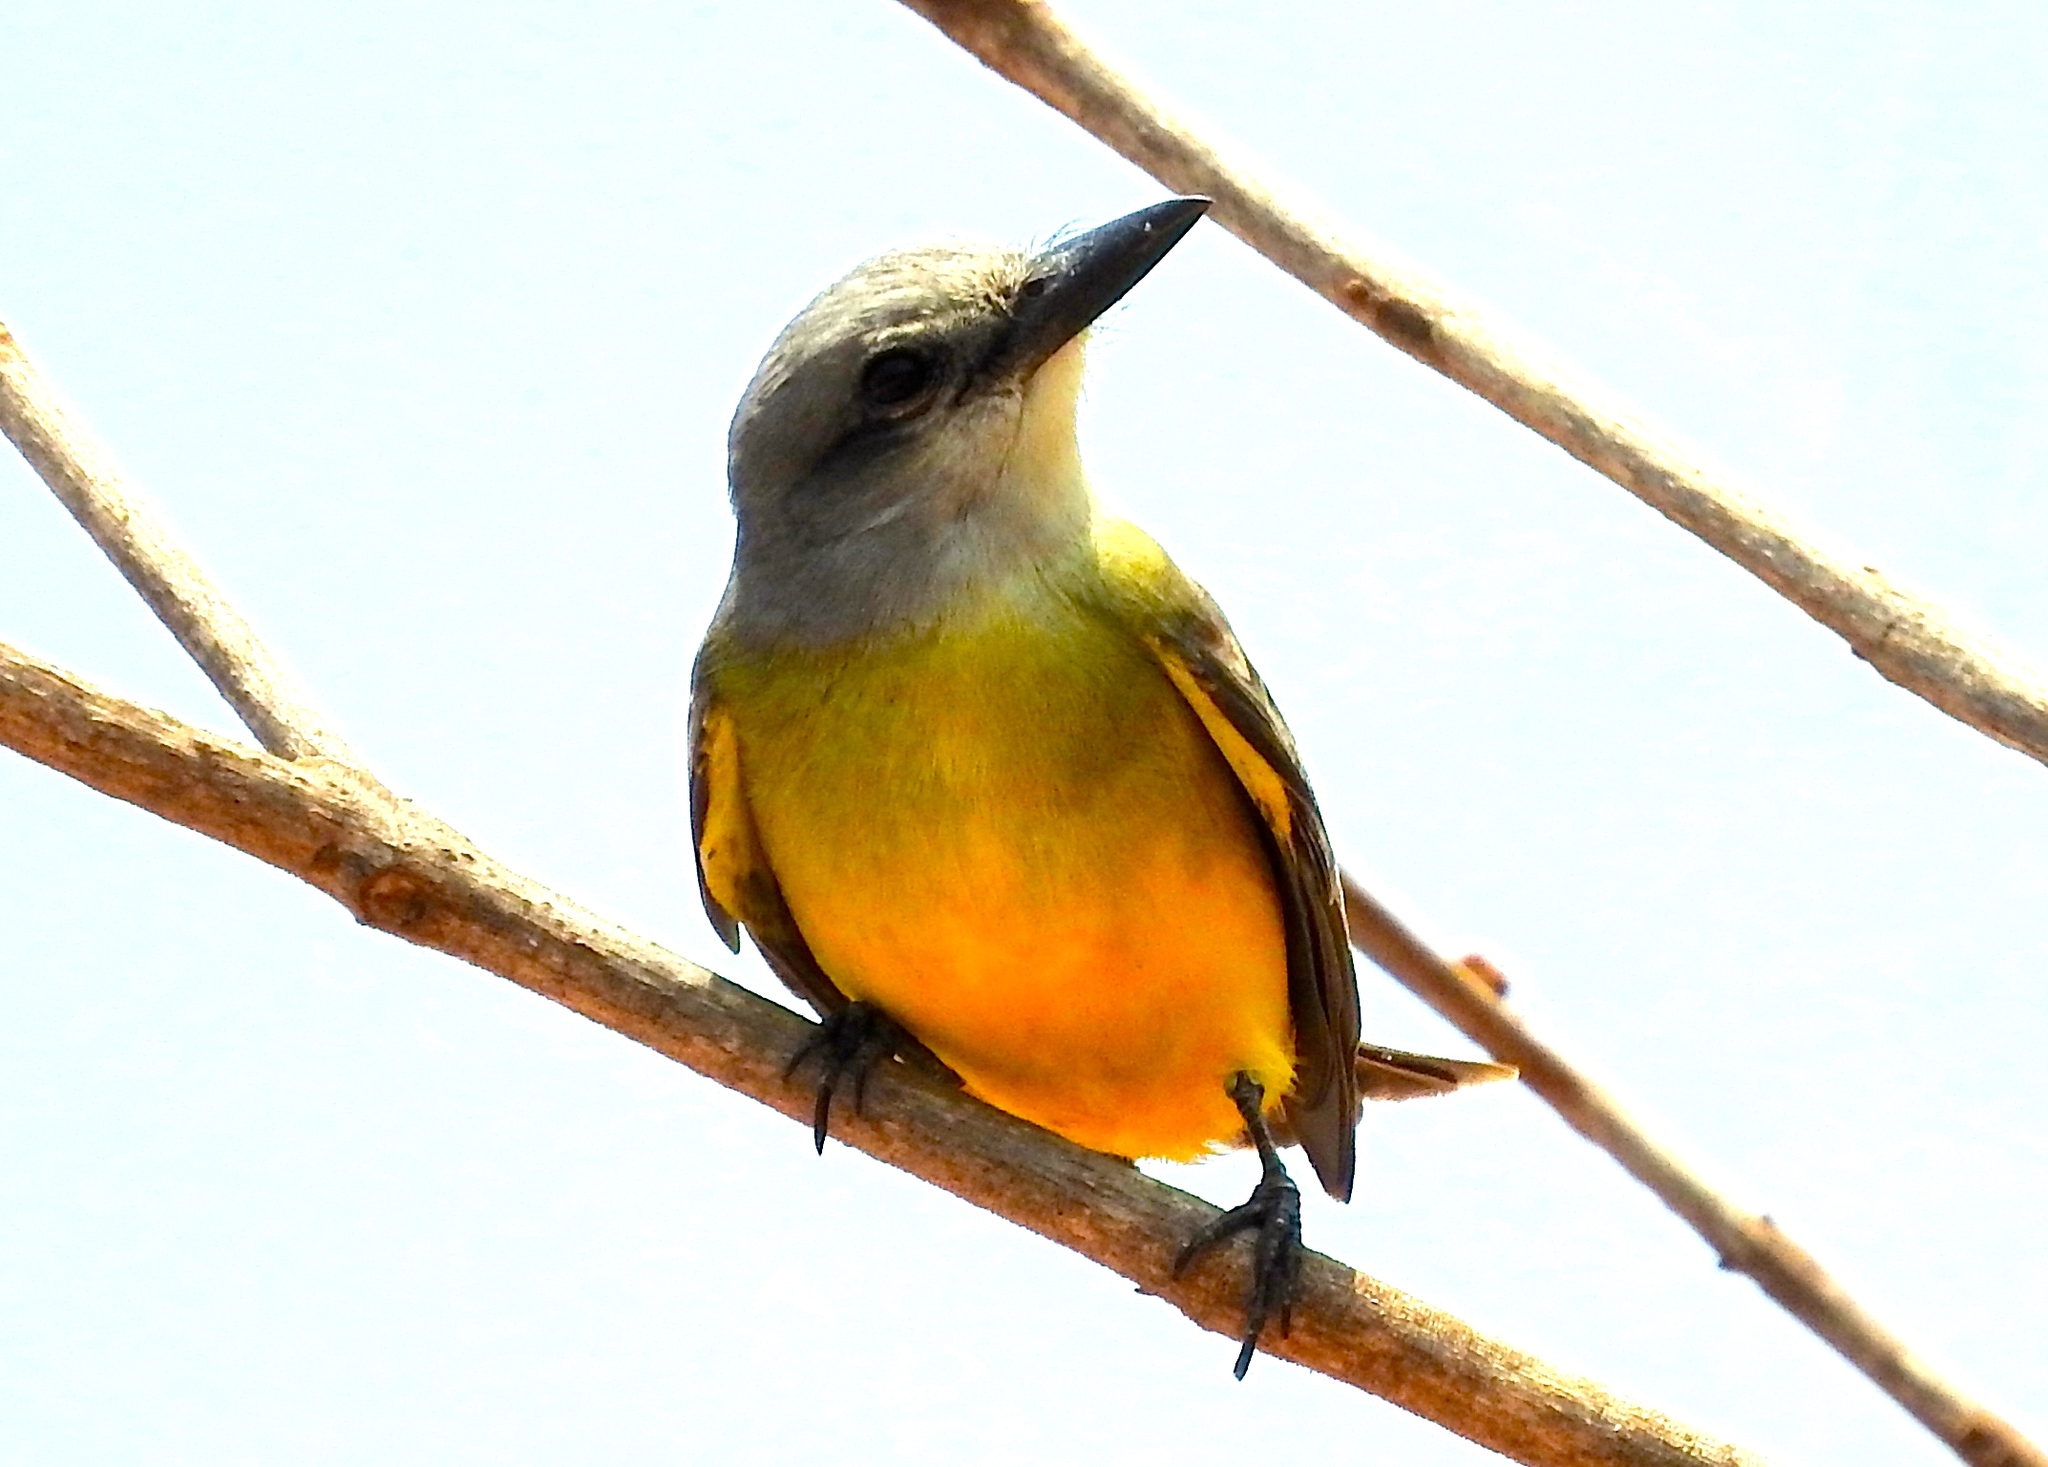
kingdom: Animalia
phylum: Chordata
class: Aves
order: Passeriformes
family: Tyrannidae
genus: Tyrannus
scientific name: Tyrannus melancholicus
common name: Tropical kingbird
